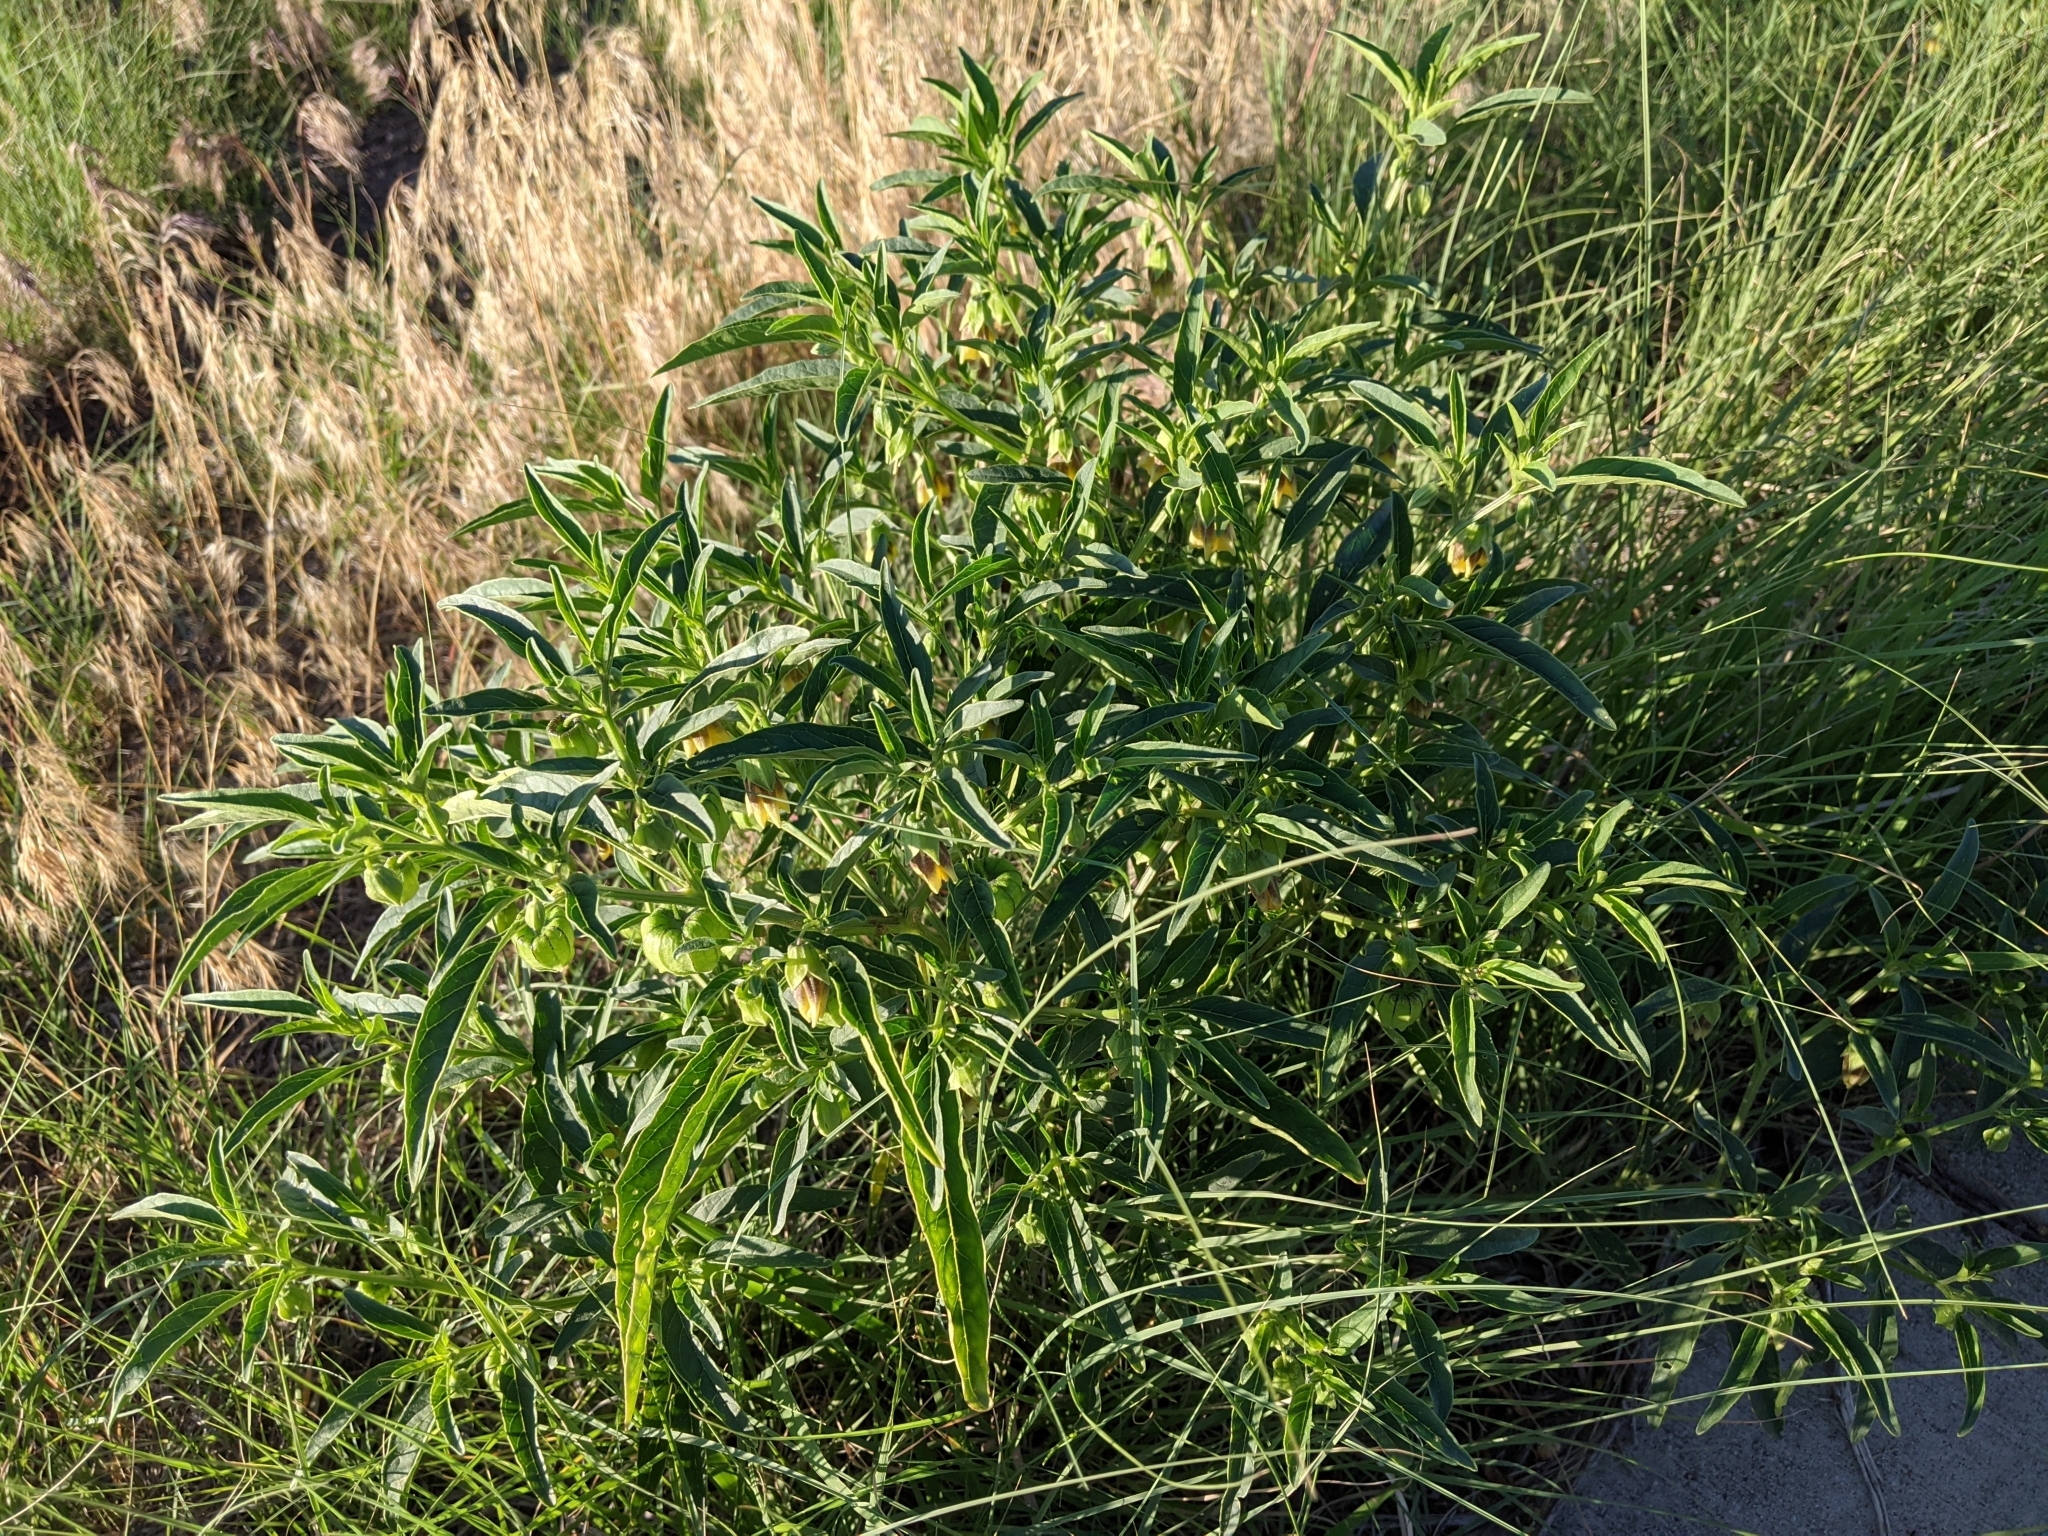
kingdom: Plantae
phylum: Tracheophyta
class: Magnoliopsida
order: Solanales
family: Solanaceae
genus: Physalis
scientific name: Physalis longifolia
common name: Common ground-cherry
